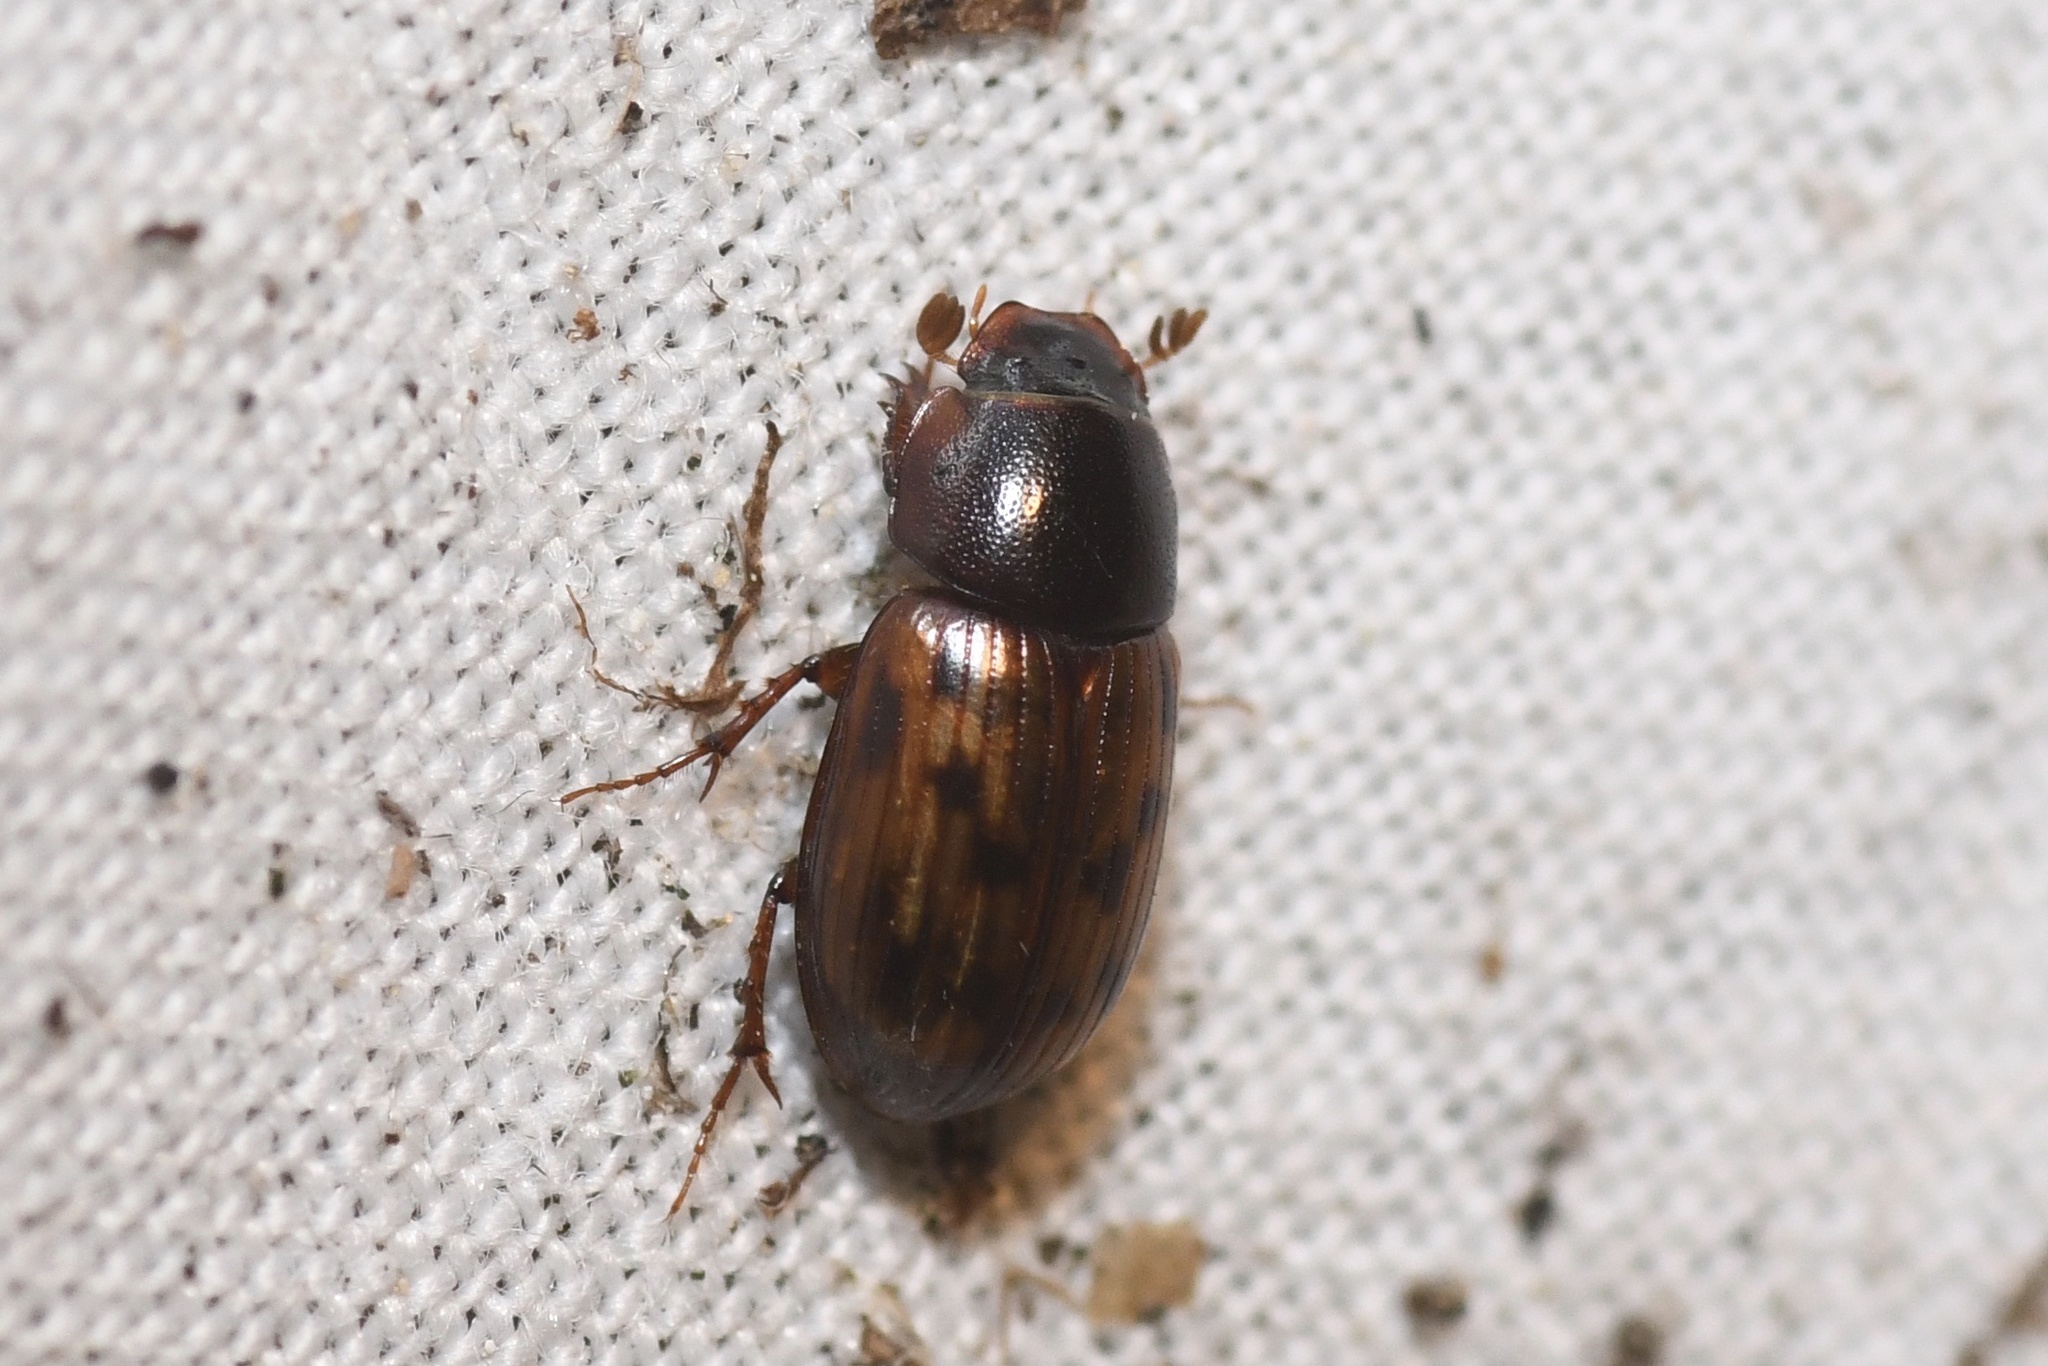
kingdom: Animalia
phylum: Arthropoda
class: Insecta
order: Coleoptera
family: Scarabaeidae
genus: Agoliinus
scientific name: Agoliinus leopardus
